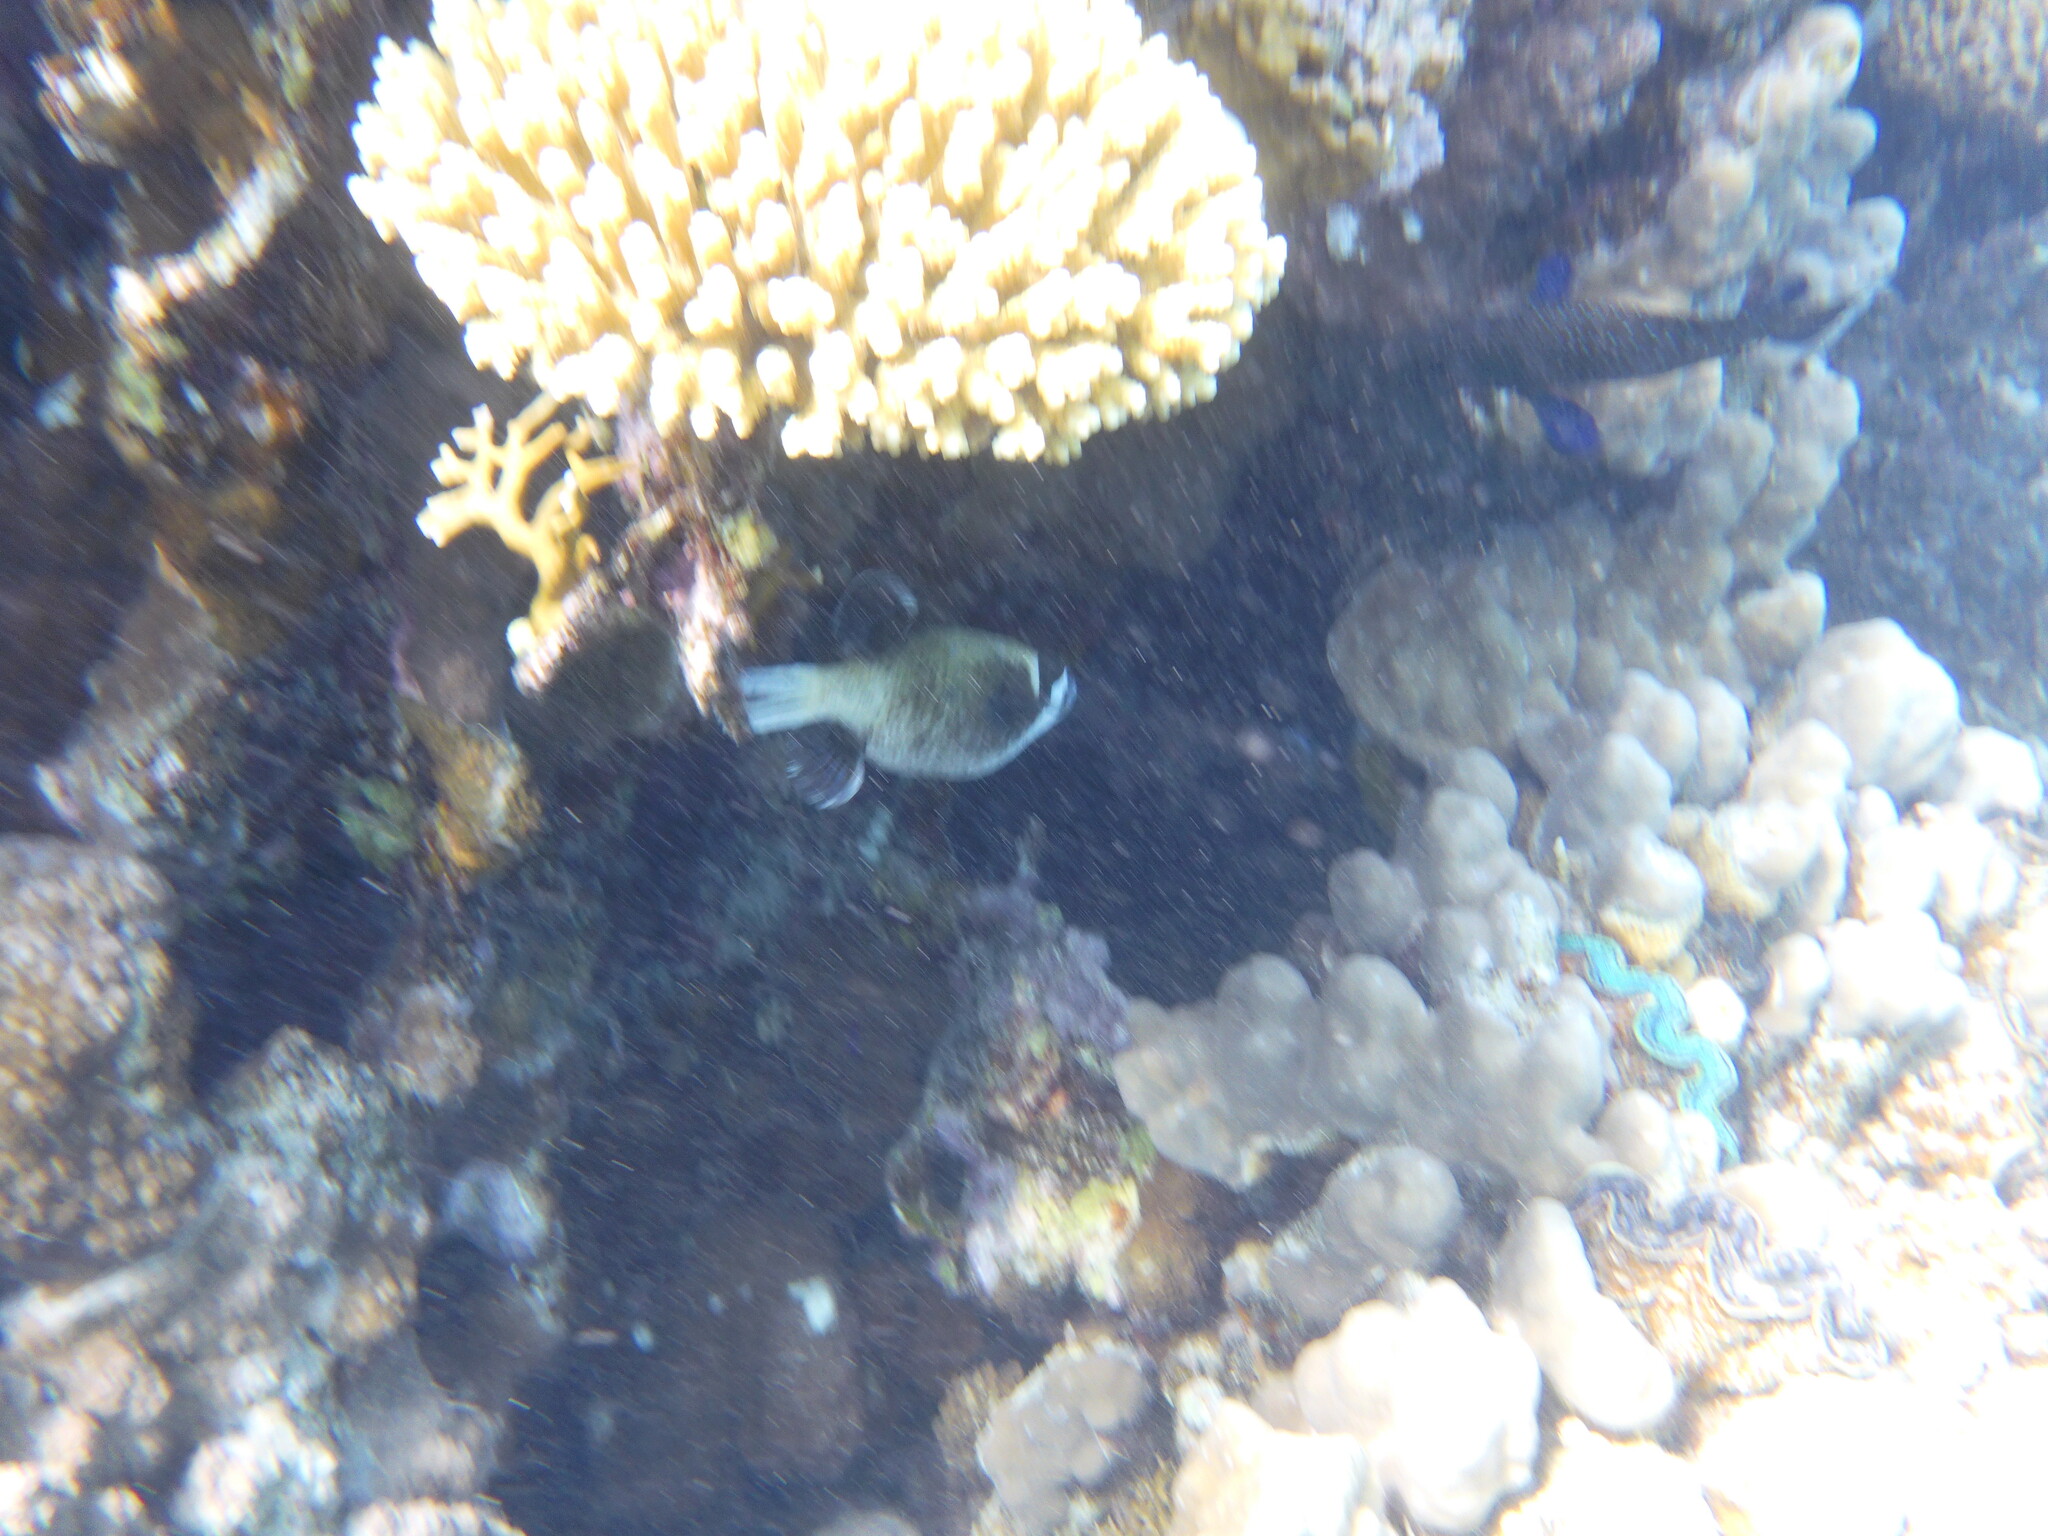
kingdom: Animalia
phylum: Chordata
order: Tetraodontiformes
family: Tetraodontidae
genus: Arothron
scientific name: Arothron diadematus
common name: Masked puffer
